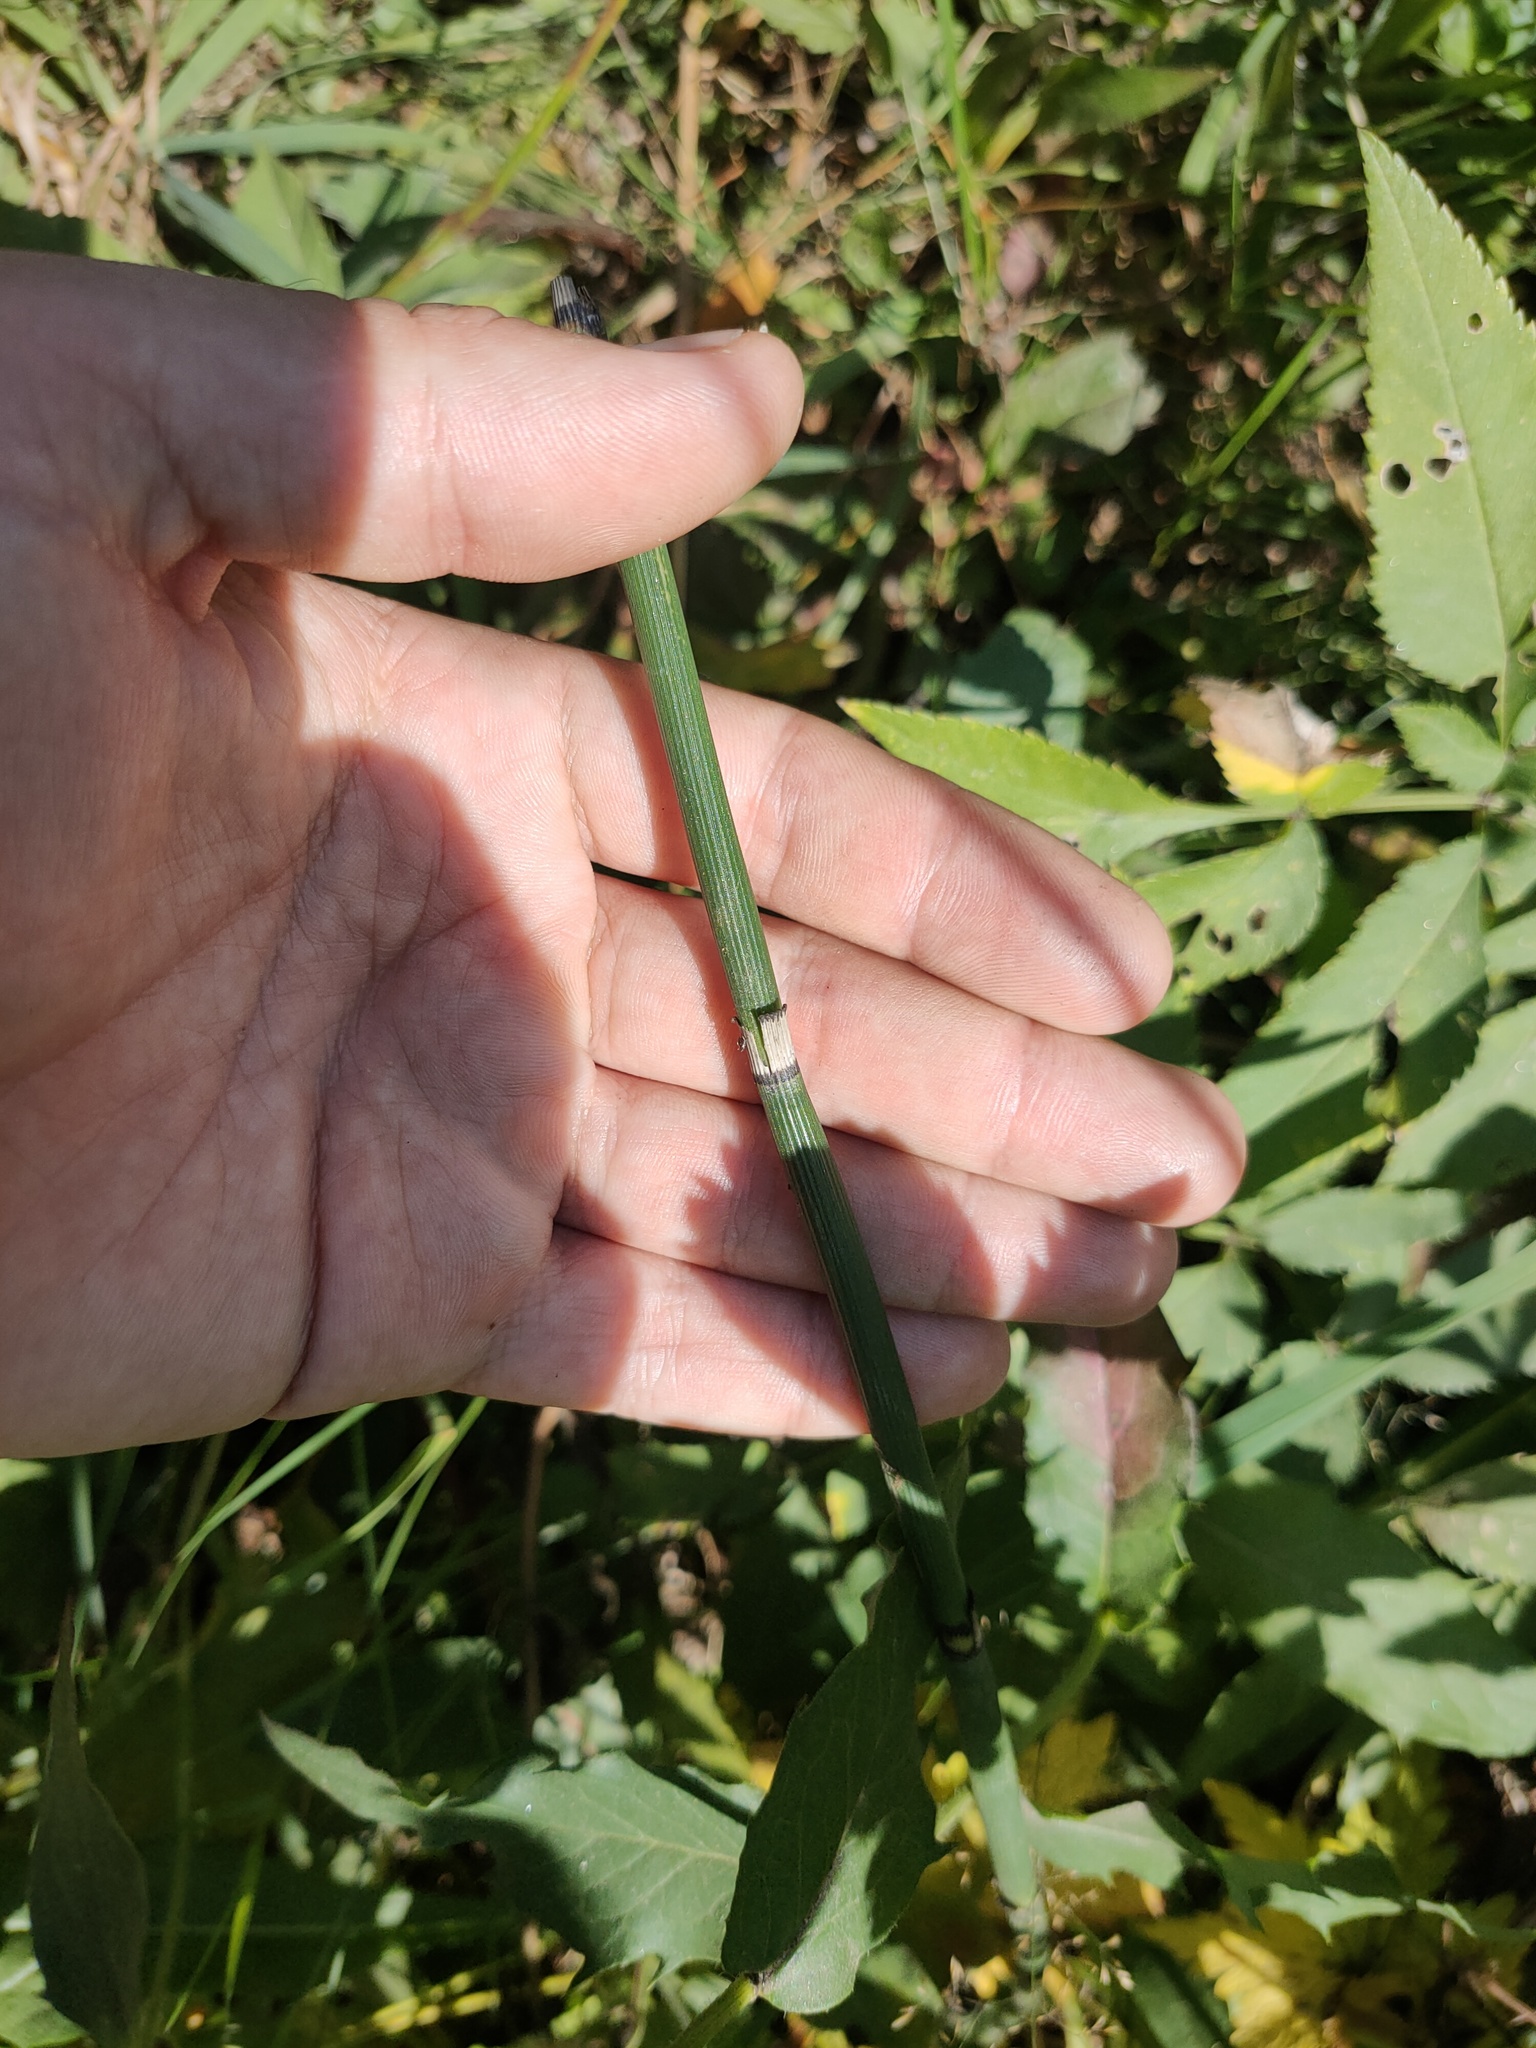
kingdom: Plantae
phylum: Tracheophyta
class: Polypodiopsida
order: Equisetales
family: Equisetaceae
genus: Equisetum
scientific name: Equisetum hyemale
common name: Rough horsetail
